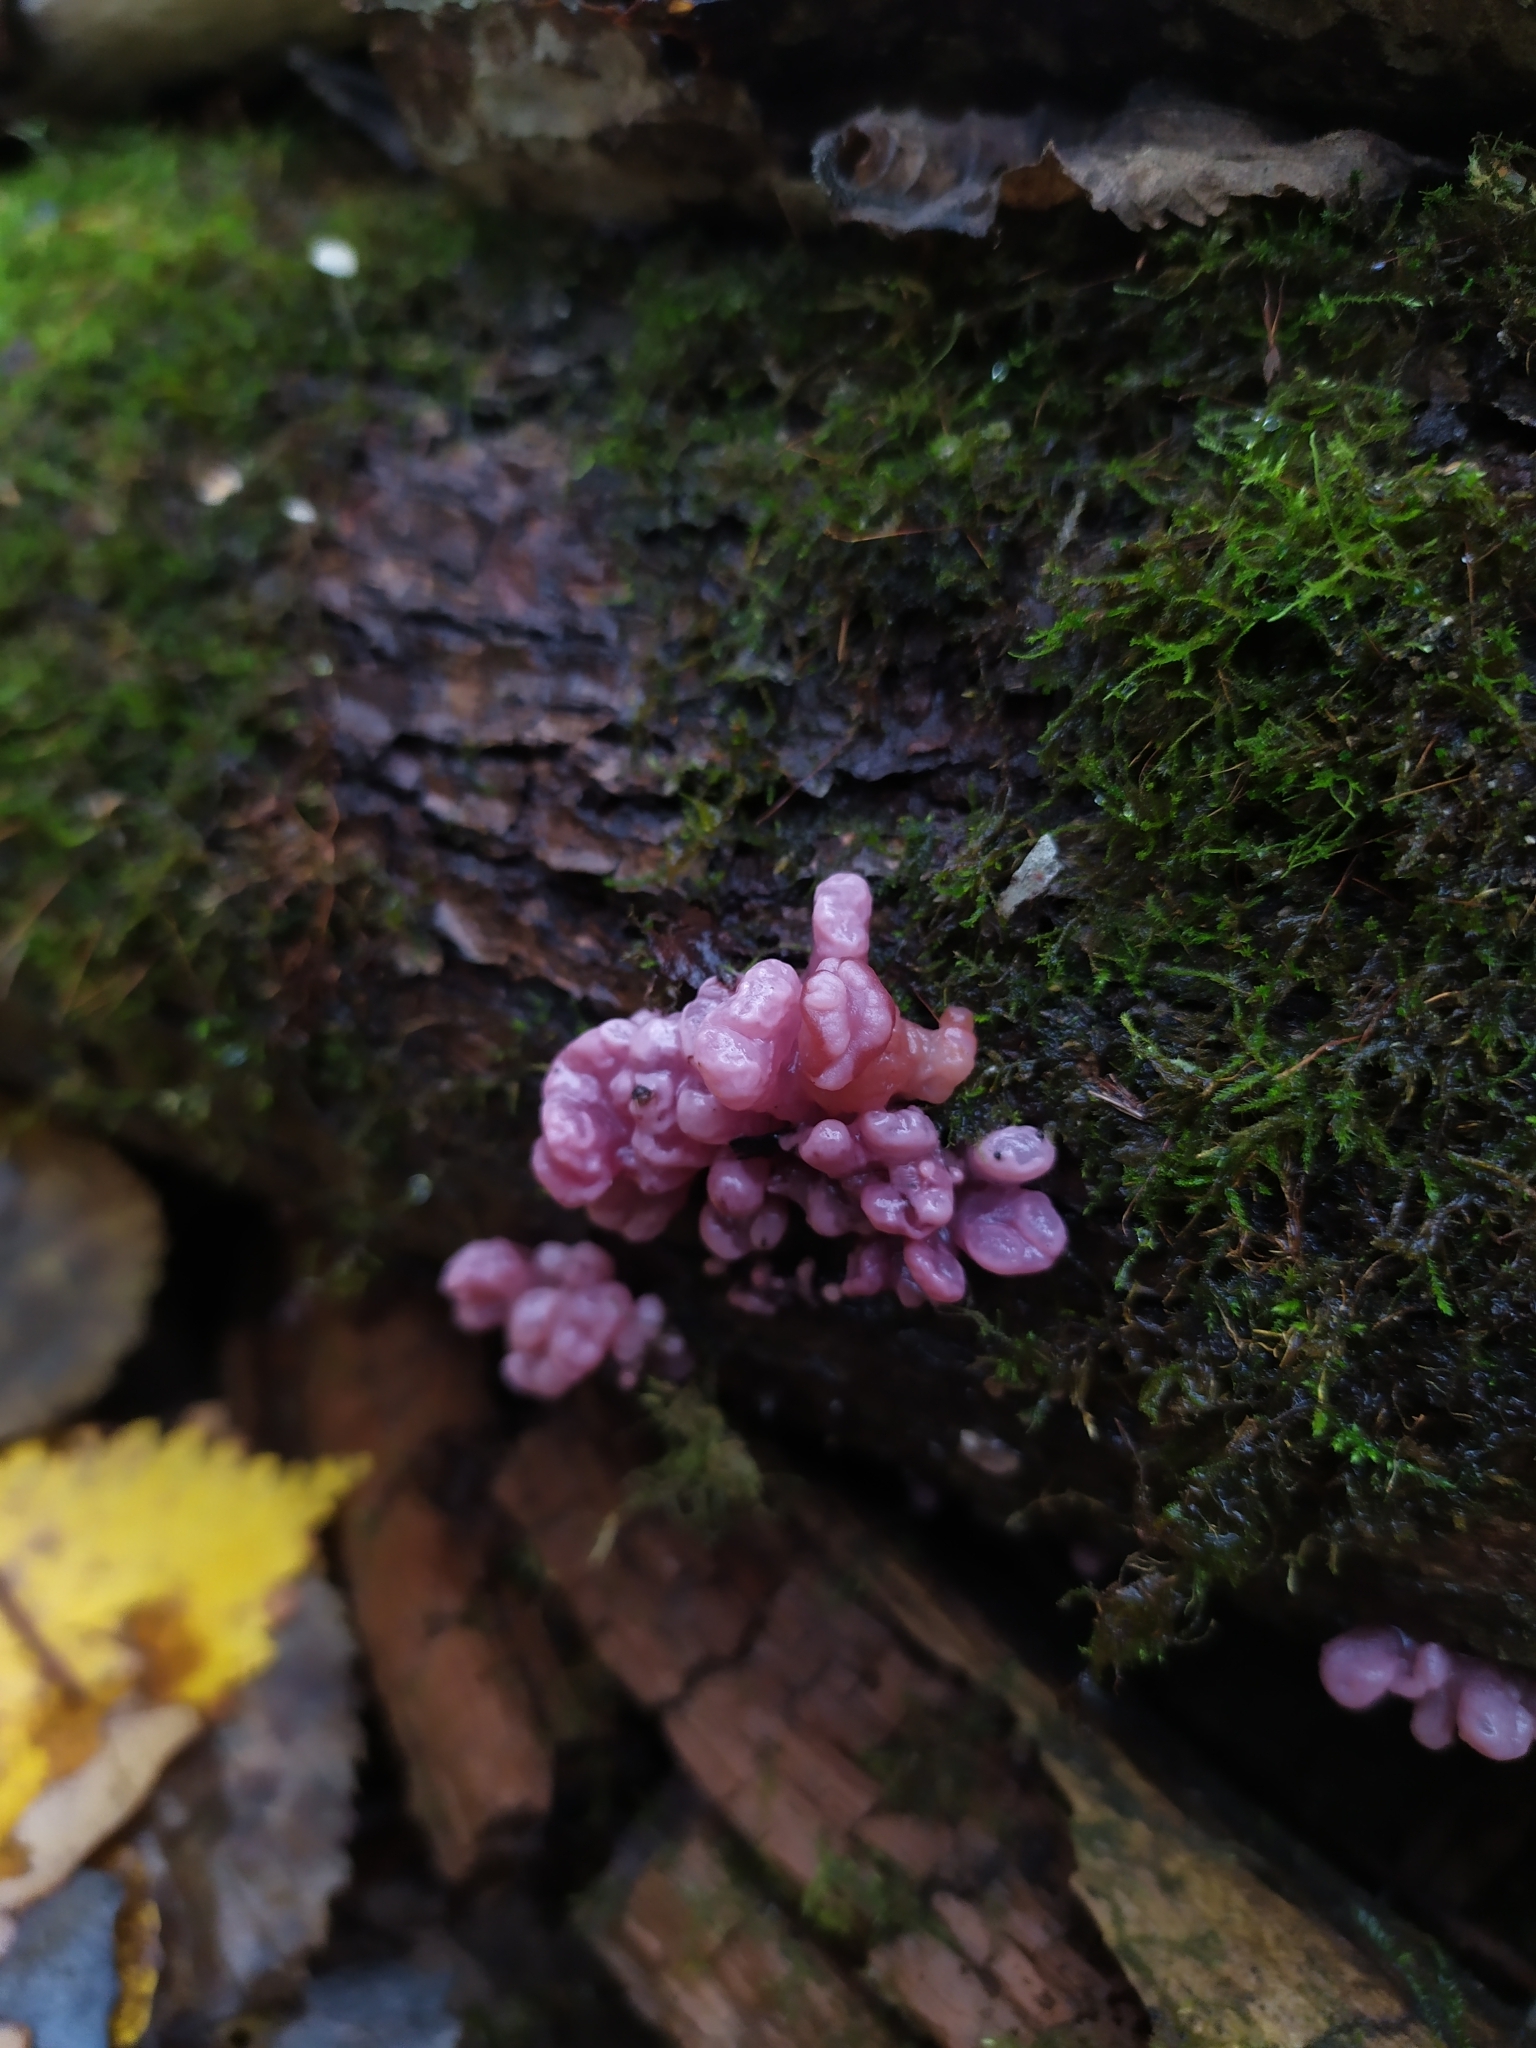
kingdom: Fungi
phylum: Ascomycota
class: Leotiomycetes
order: Helotiales
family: Gelatinodiscaceae
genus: Ascocoryne
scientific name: Ascocoryne sarcoides
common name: Purple jellydisc
